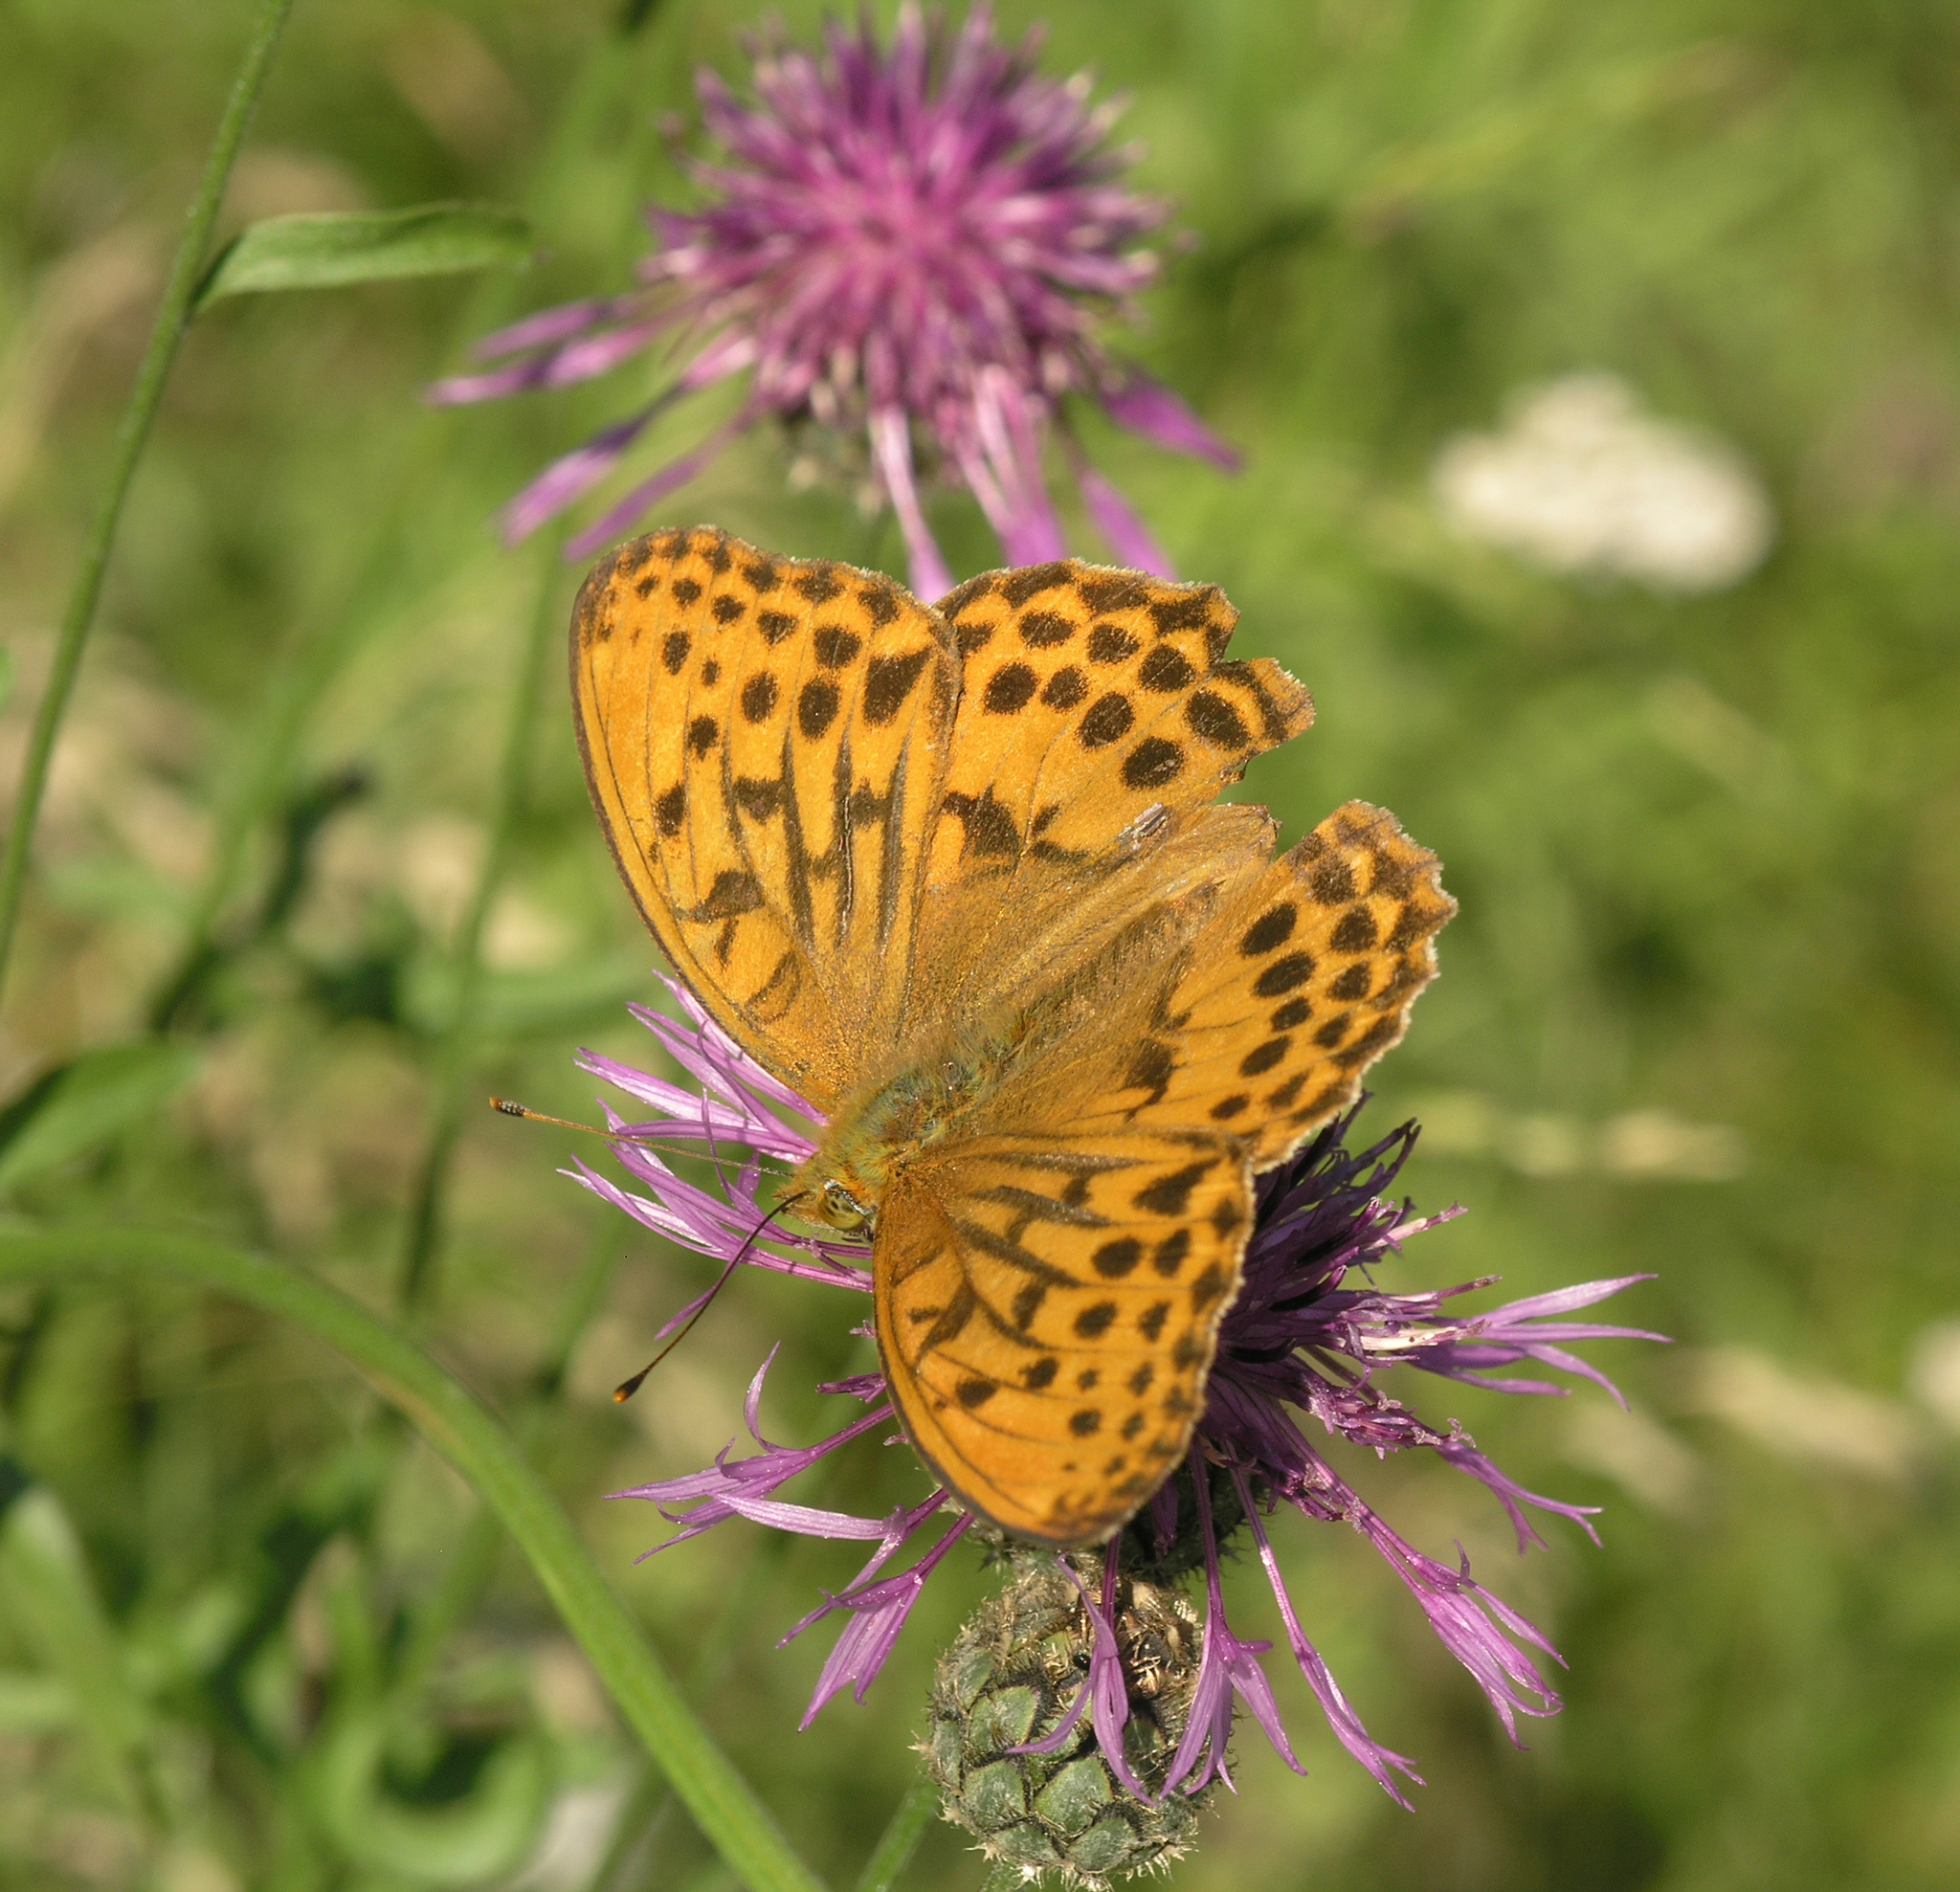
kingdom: Animalia
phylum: Arthropoda
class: Insecta
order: Lepidoptera
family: Nymphalidae
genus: Damora
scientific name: Damora sagana
